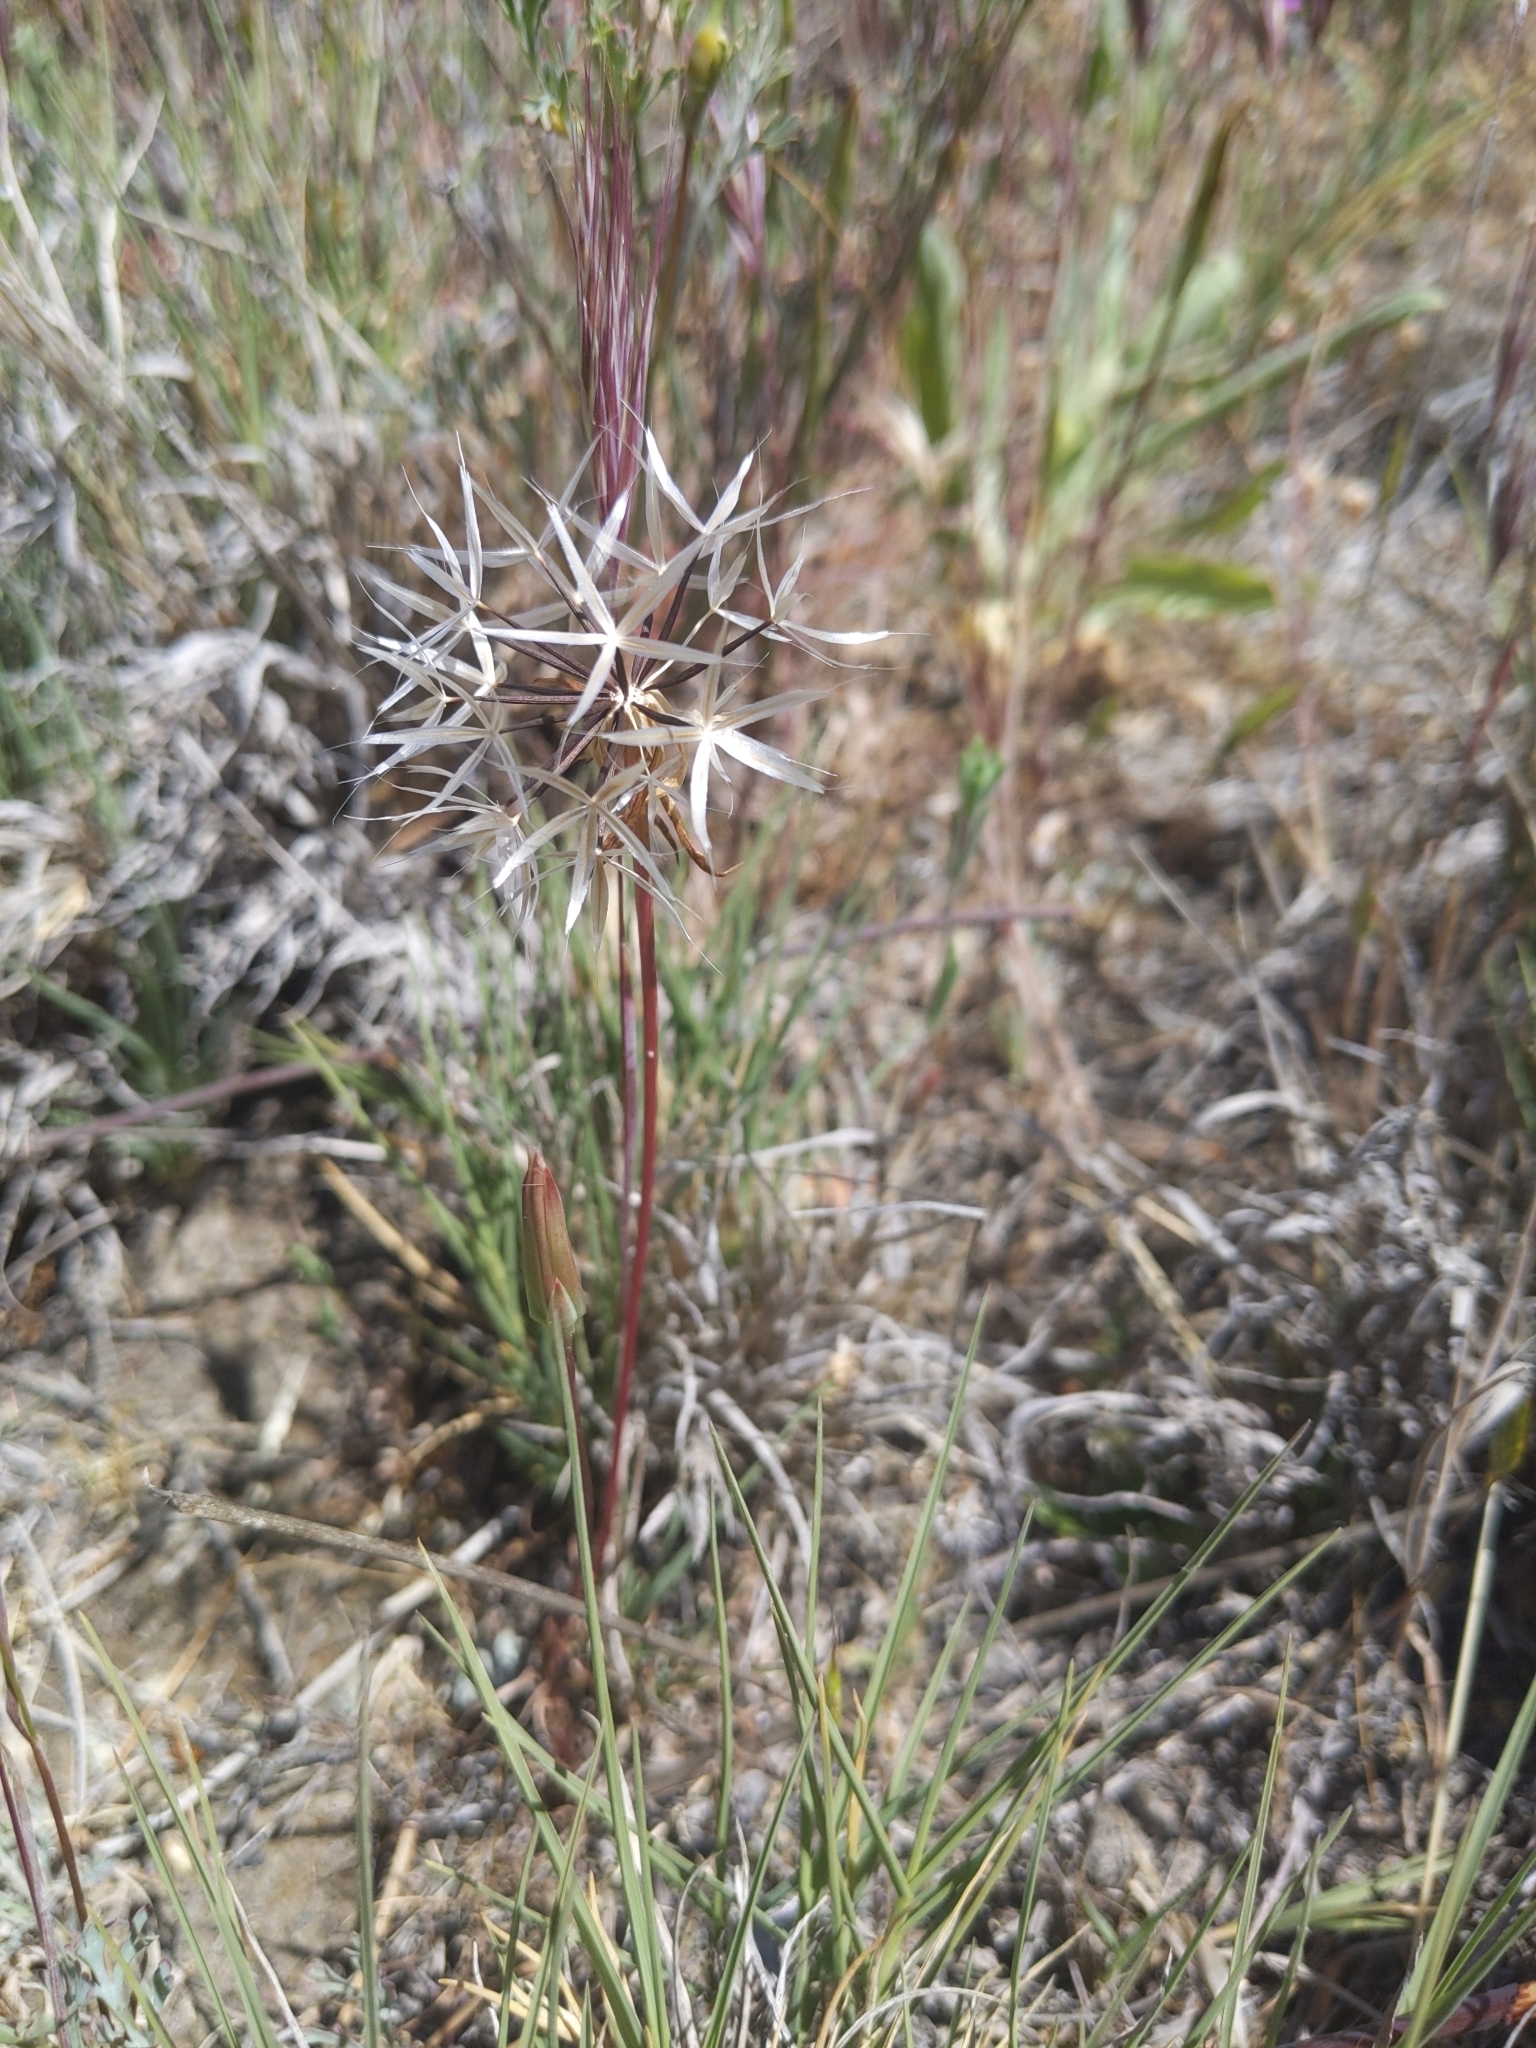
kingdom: Plantae
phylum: Tracheophyta
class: Magnoliopsida
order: Asterales
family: Asteraceae
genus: Microseris
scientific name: Microseris lindleyi
